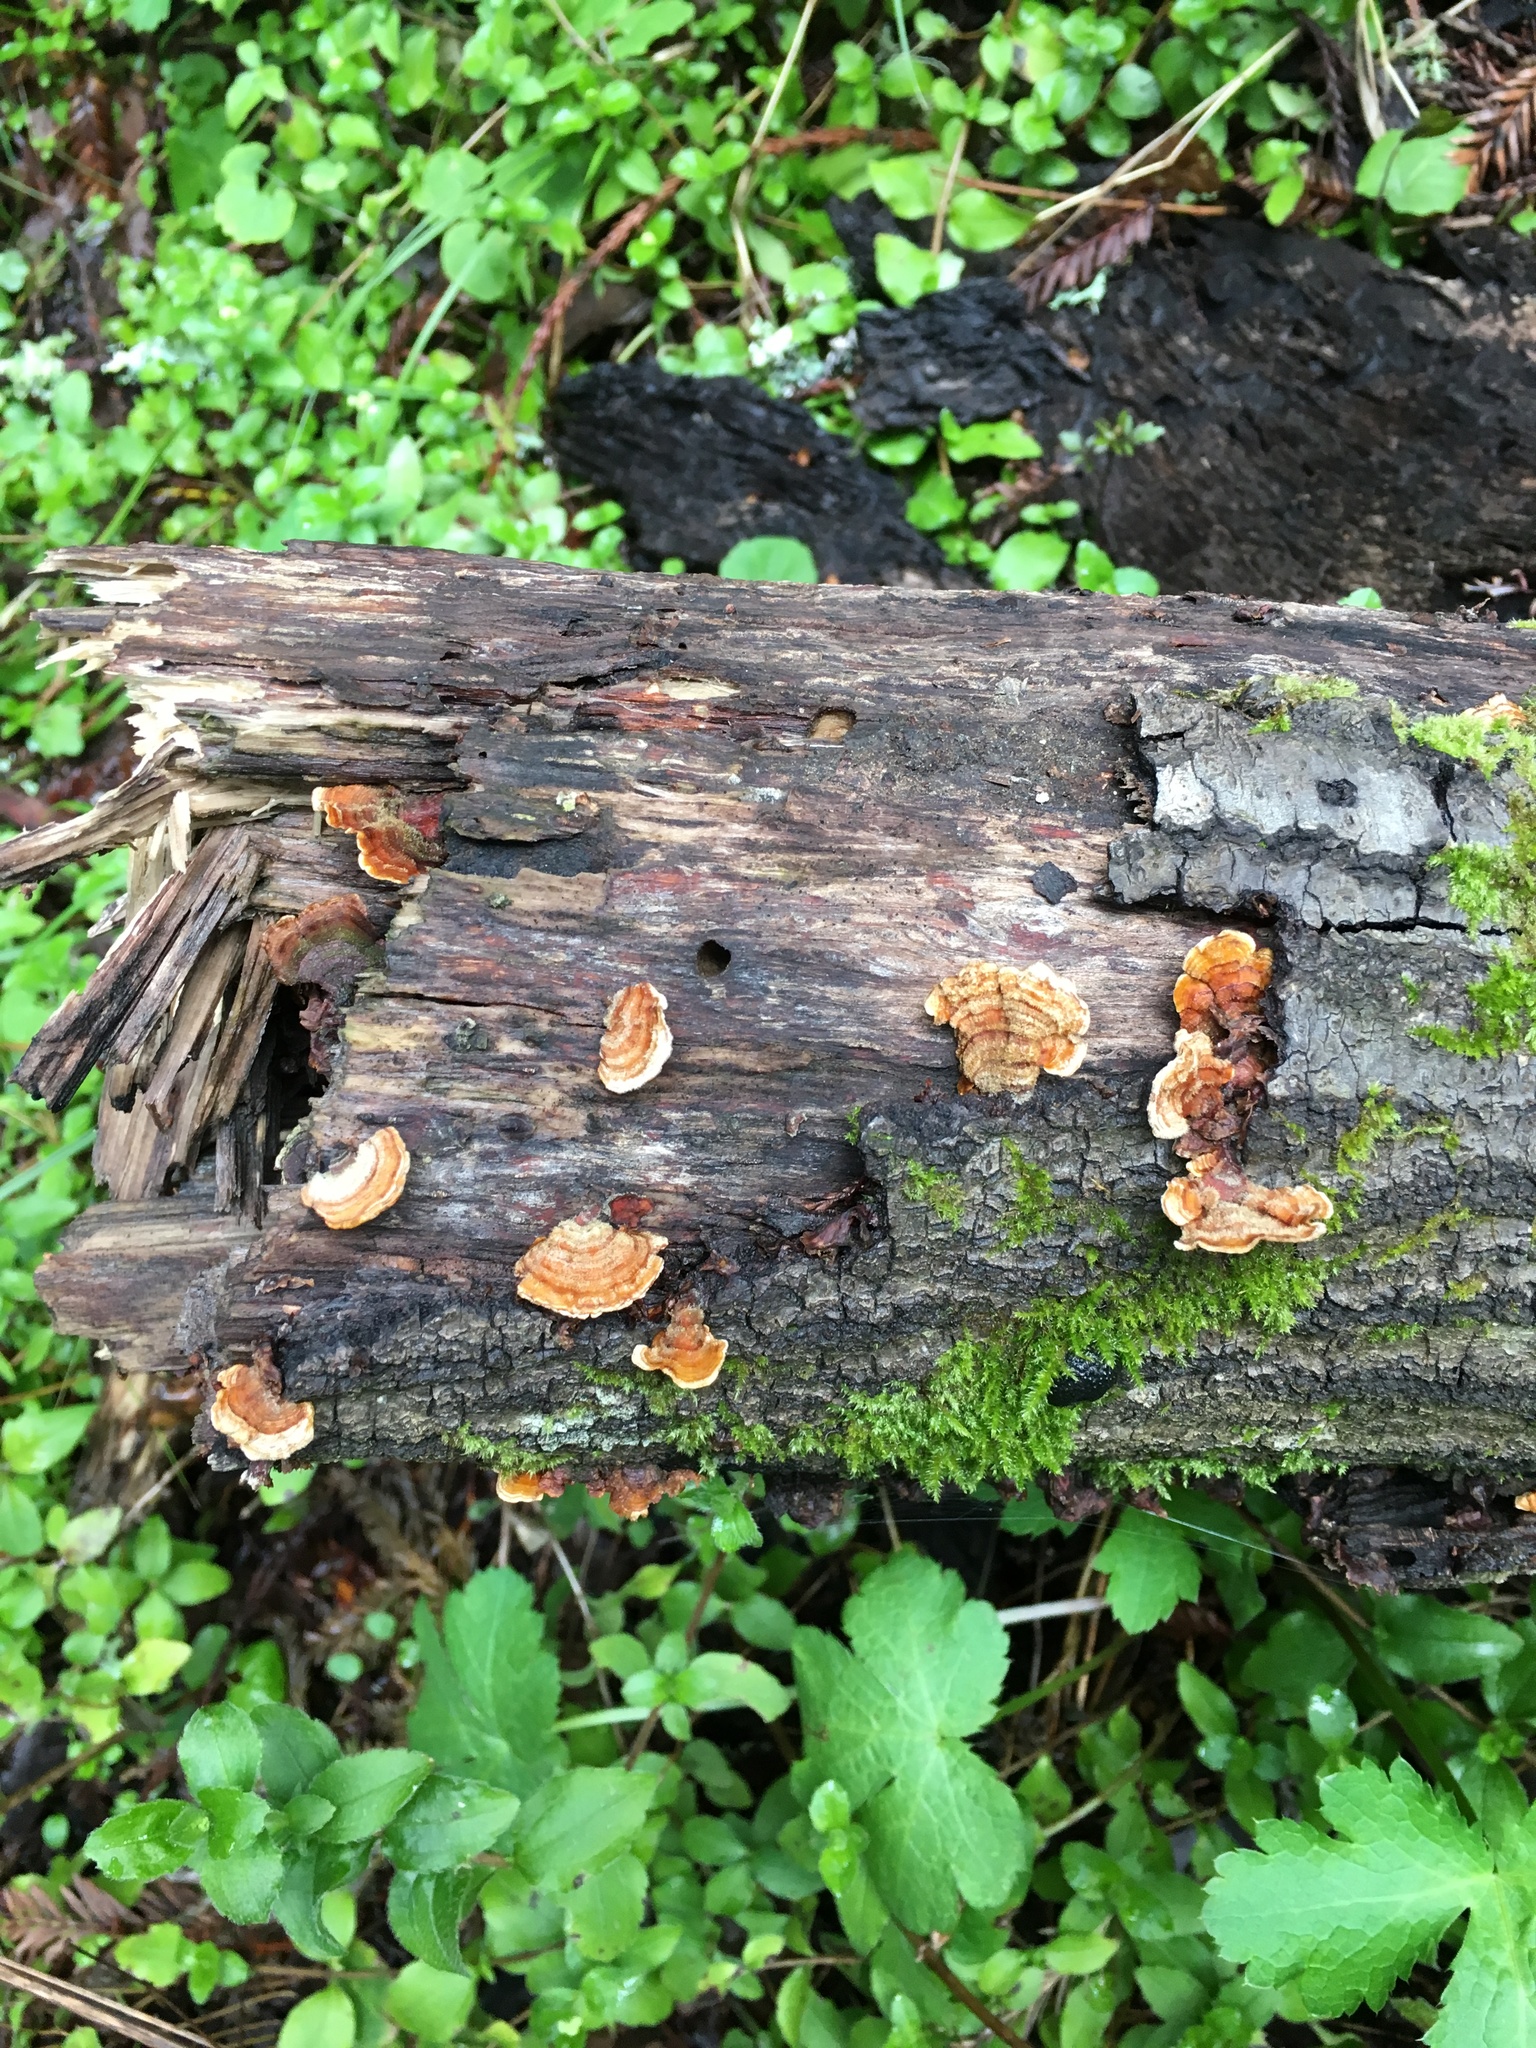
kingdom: Fungi
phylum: Basidiomycota
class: Agaricomycetes
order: Russulales
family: Stereaceae
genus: Stereum
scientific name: Stereum hirsutum
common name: Hairy curtain crust
